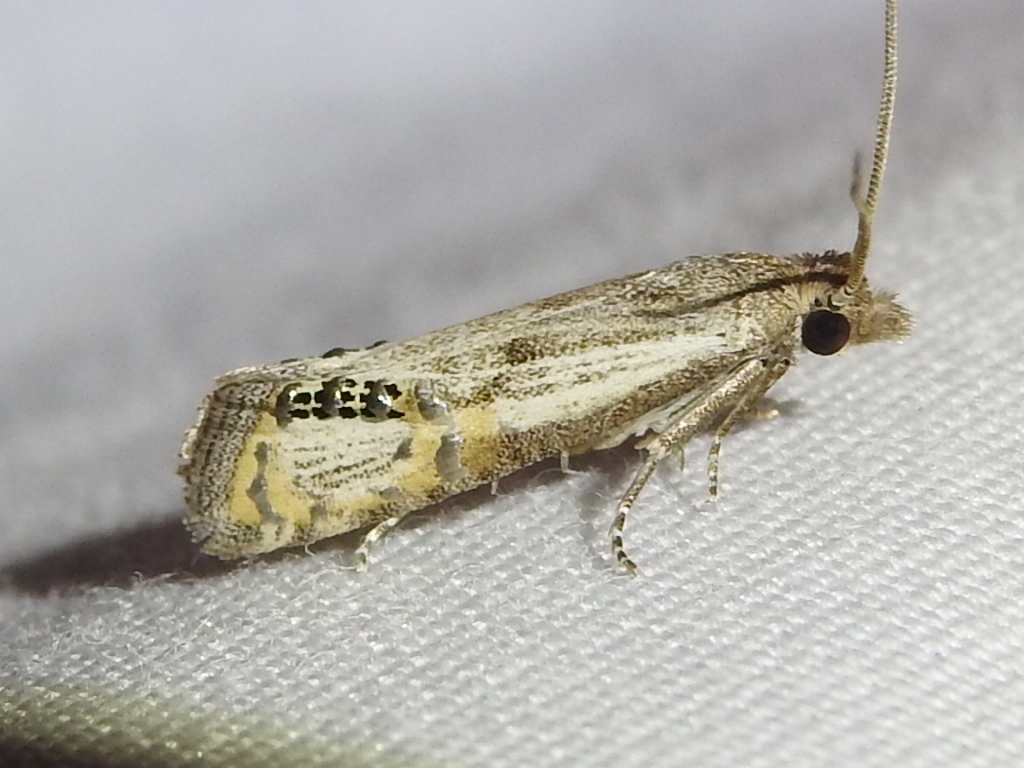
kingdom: Animalia
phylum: Arthropoda
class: Insecta
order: Lepidoptera
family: Tortricidae
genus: Pelochrista
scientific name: Pelochrista scintillana
